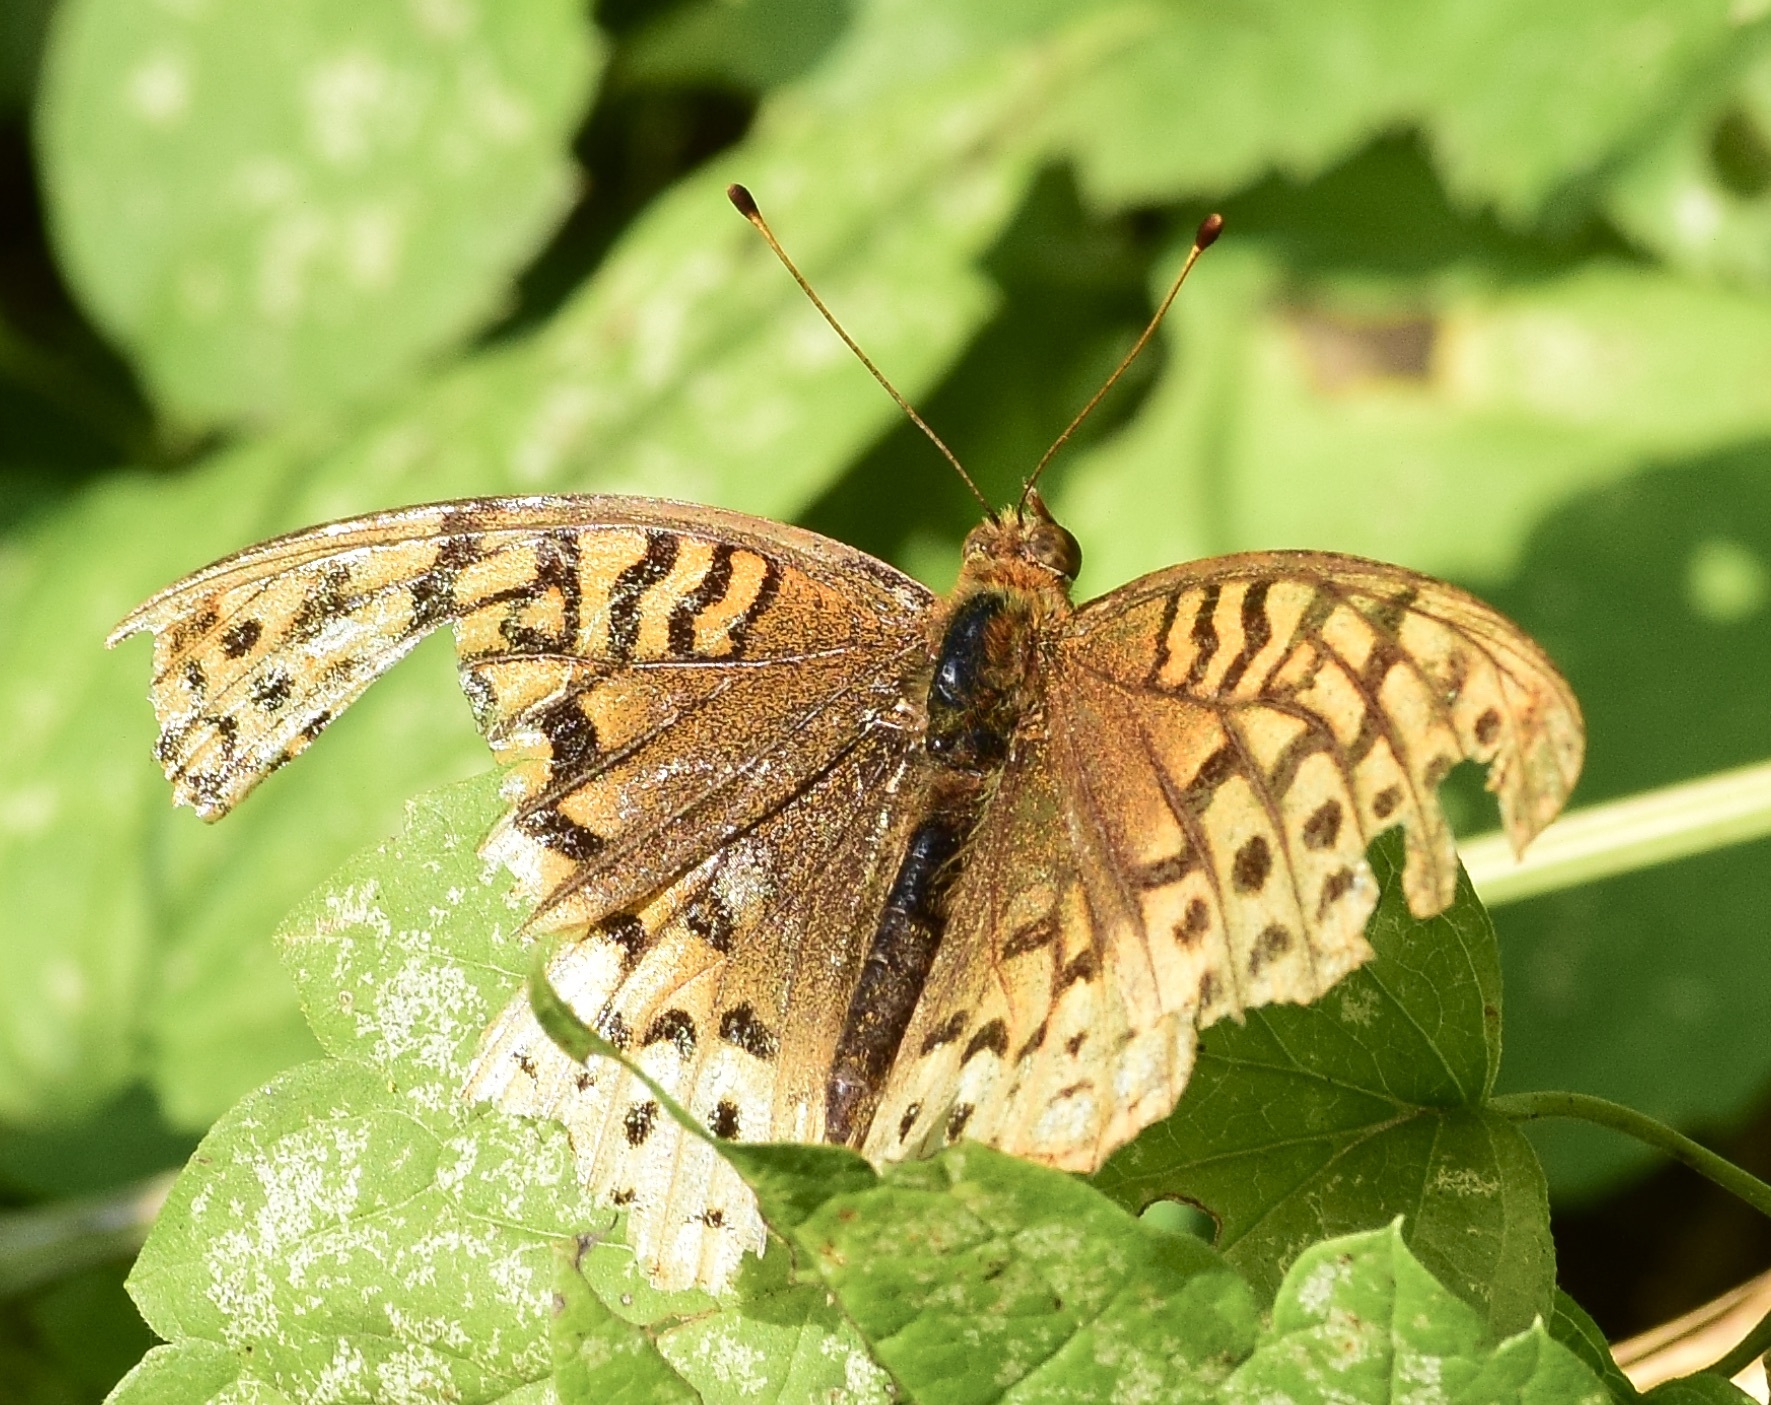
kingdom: Animalia
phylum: Arthropoda
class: Insecta
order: Lepidoptera
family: Nymphalidae
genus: Speyeria
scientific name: Speyeria cybele
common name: Great spangled fritillary
